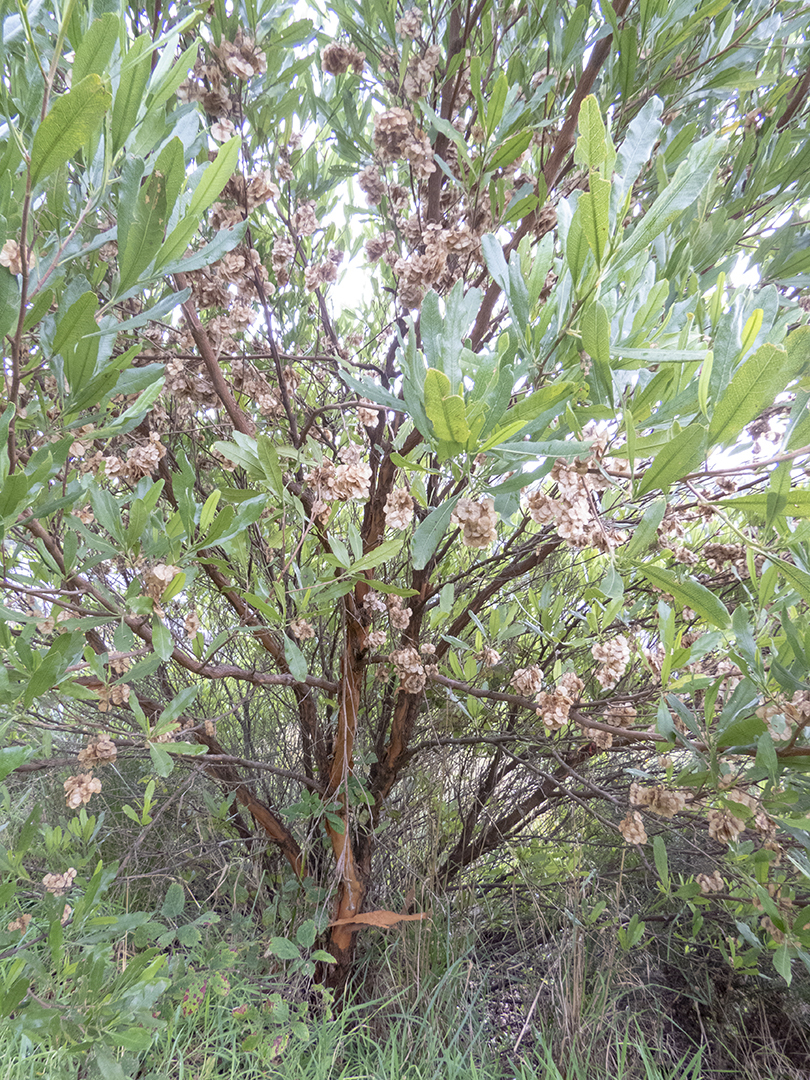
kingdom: Plantae
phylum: Tracheophyta
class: Magnoliopsida
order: Sapindales
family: Sapindaceae
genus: Dodonaea
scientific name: Dodonaea viscosa
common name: Hopbush
